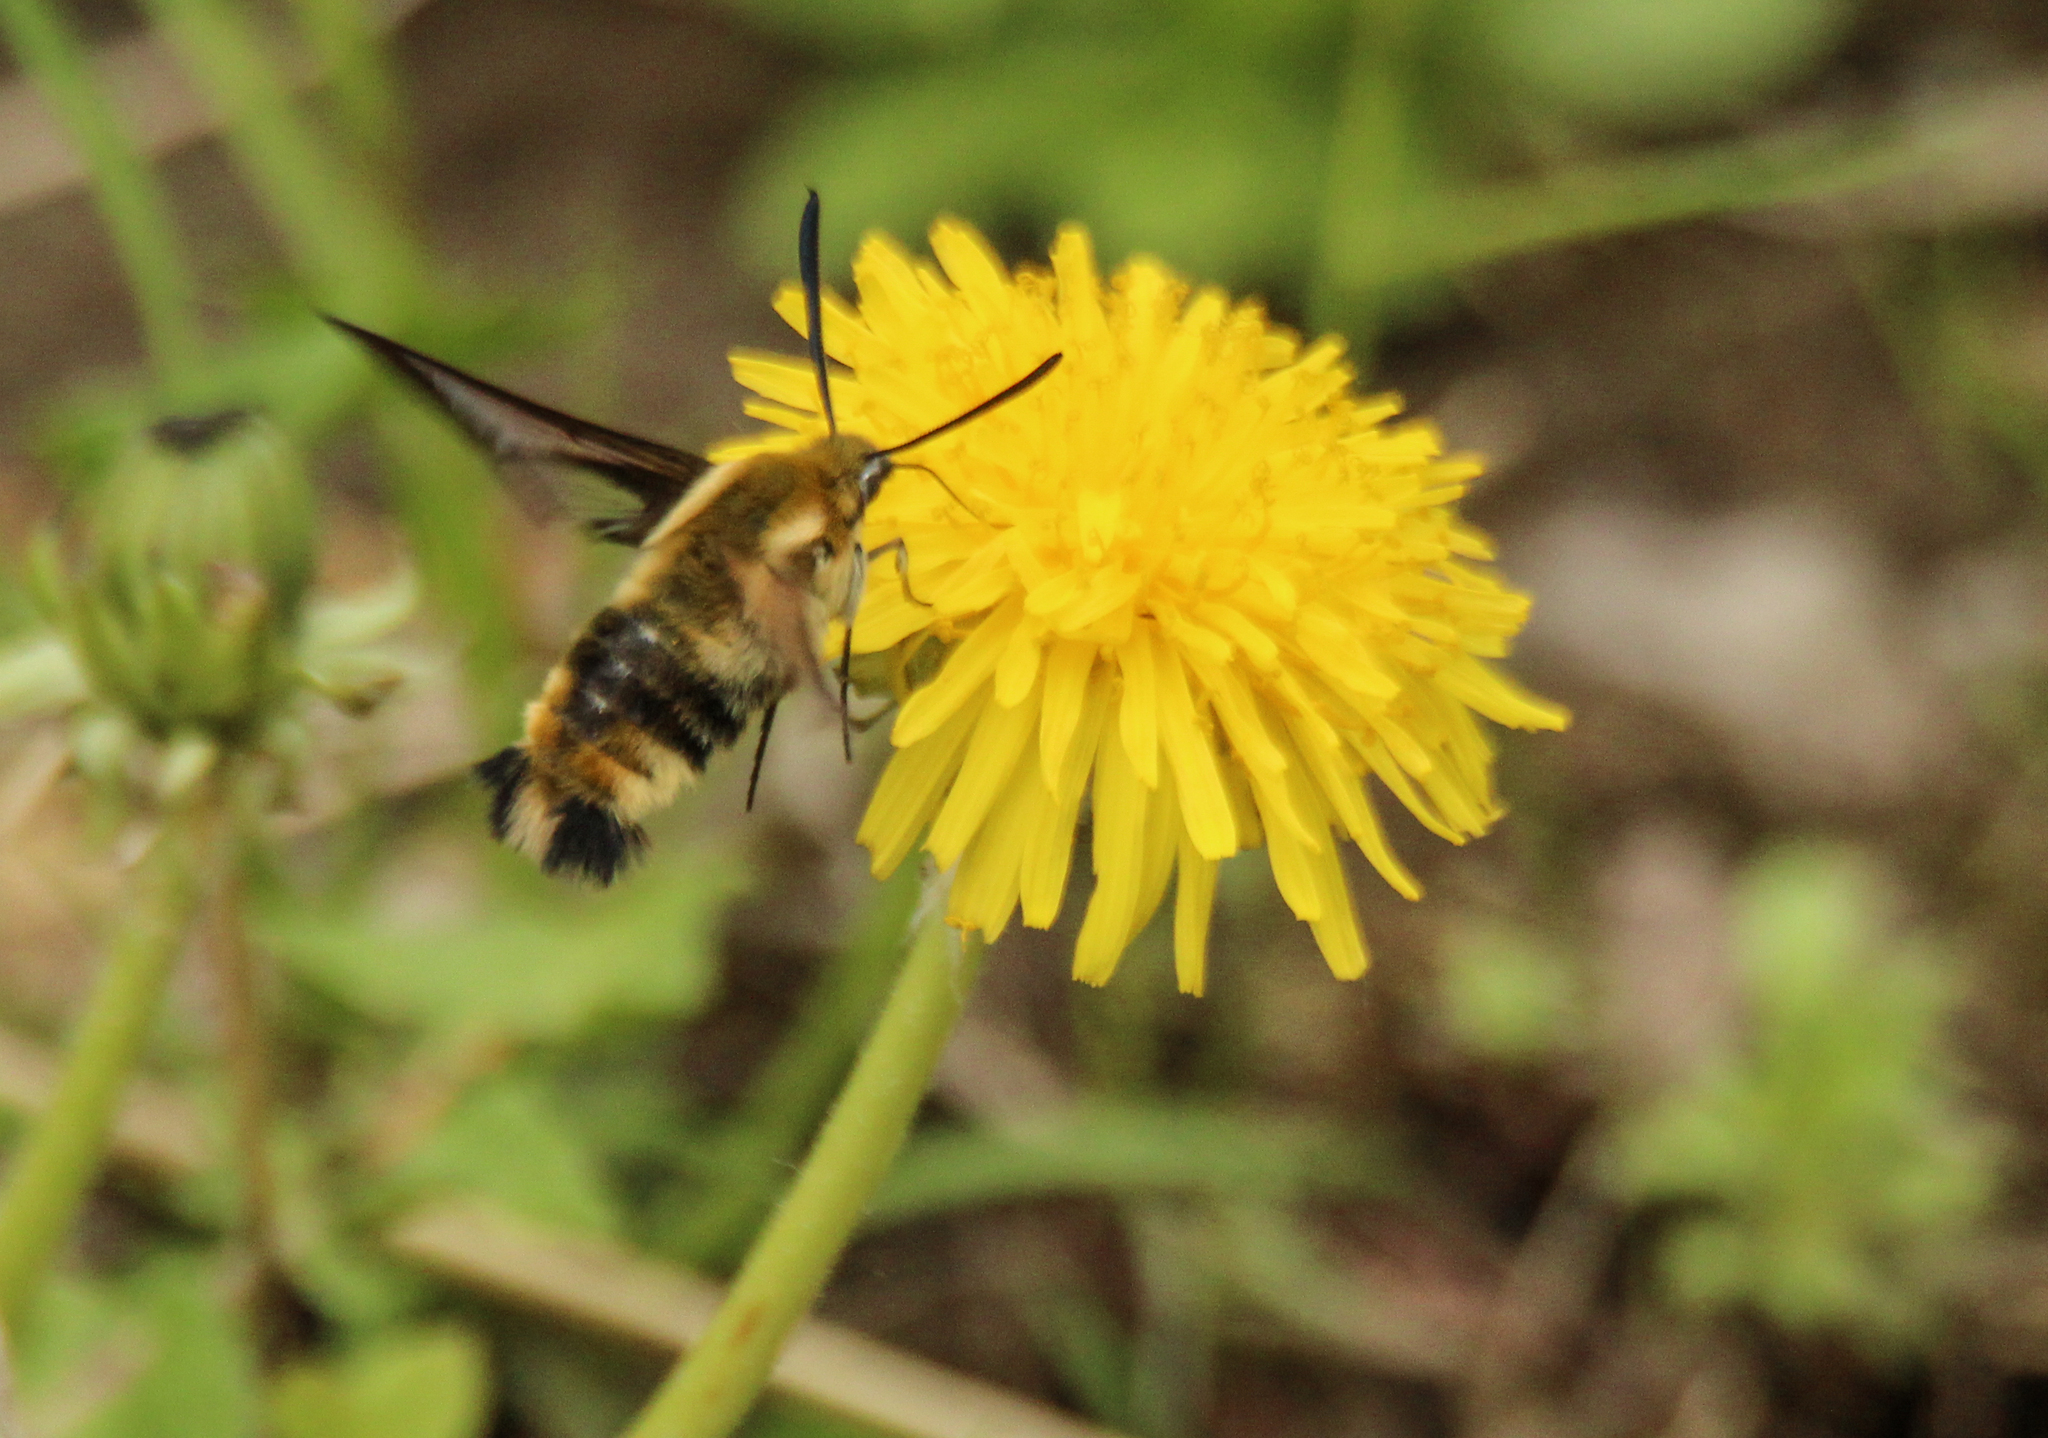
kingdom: Animalia
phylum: Arthropoda
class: Insecta
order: Lepidoptera
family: Sphingidae
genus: Hemaris
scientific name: Hemaris affinis
